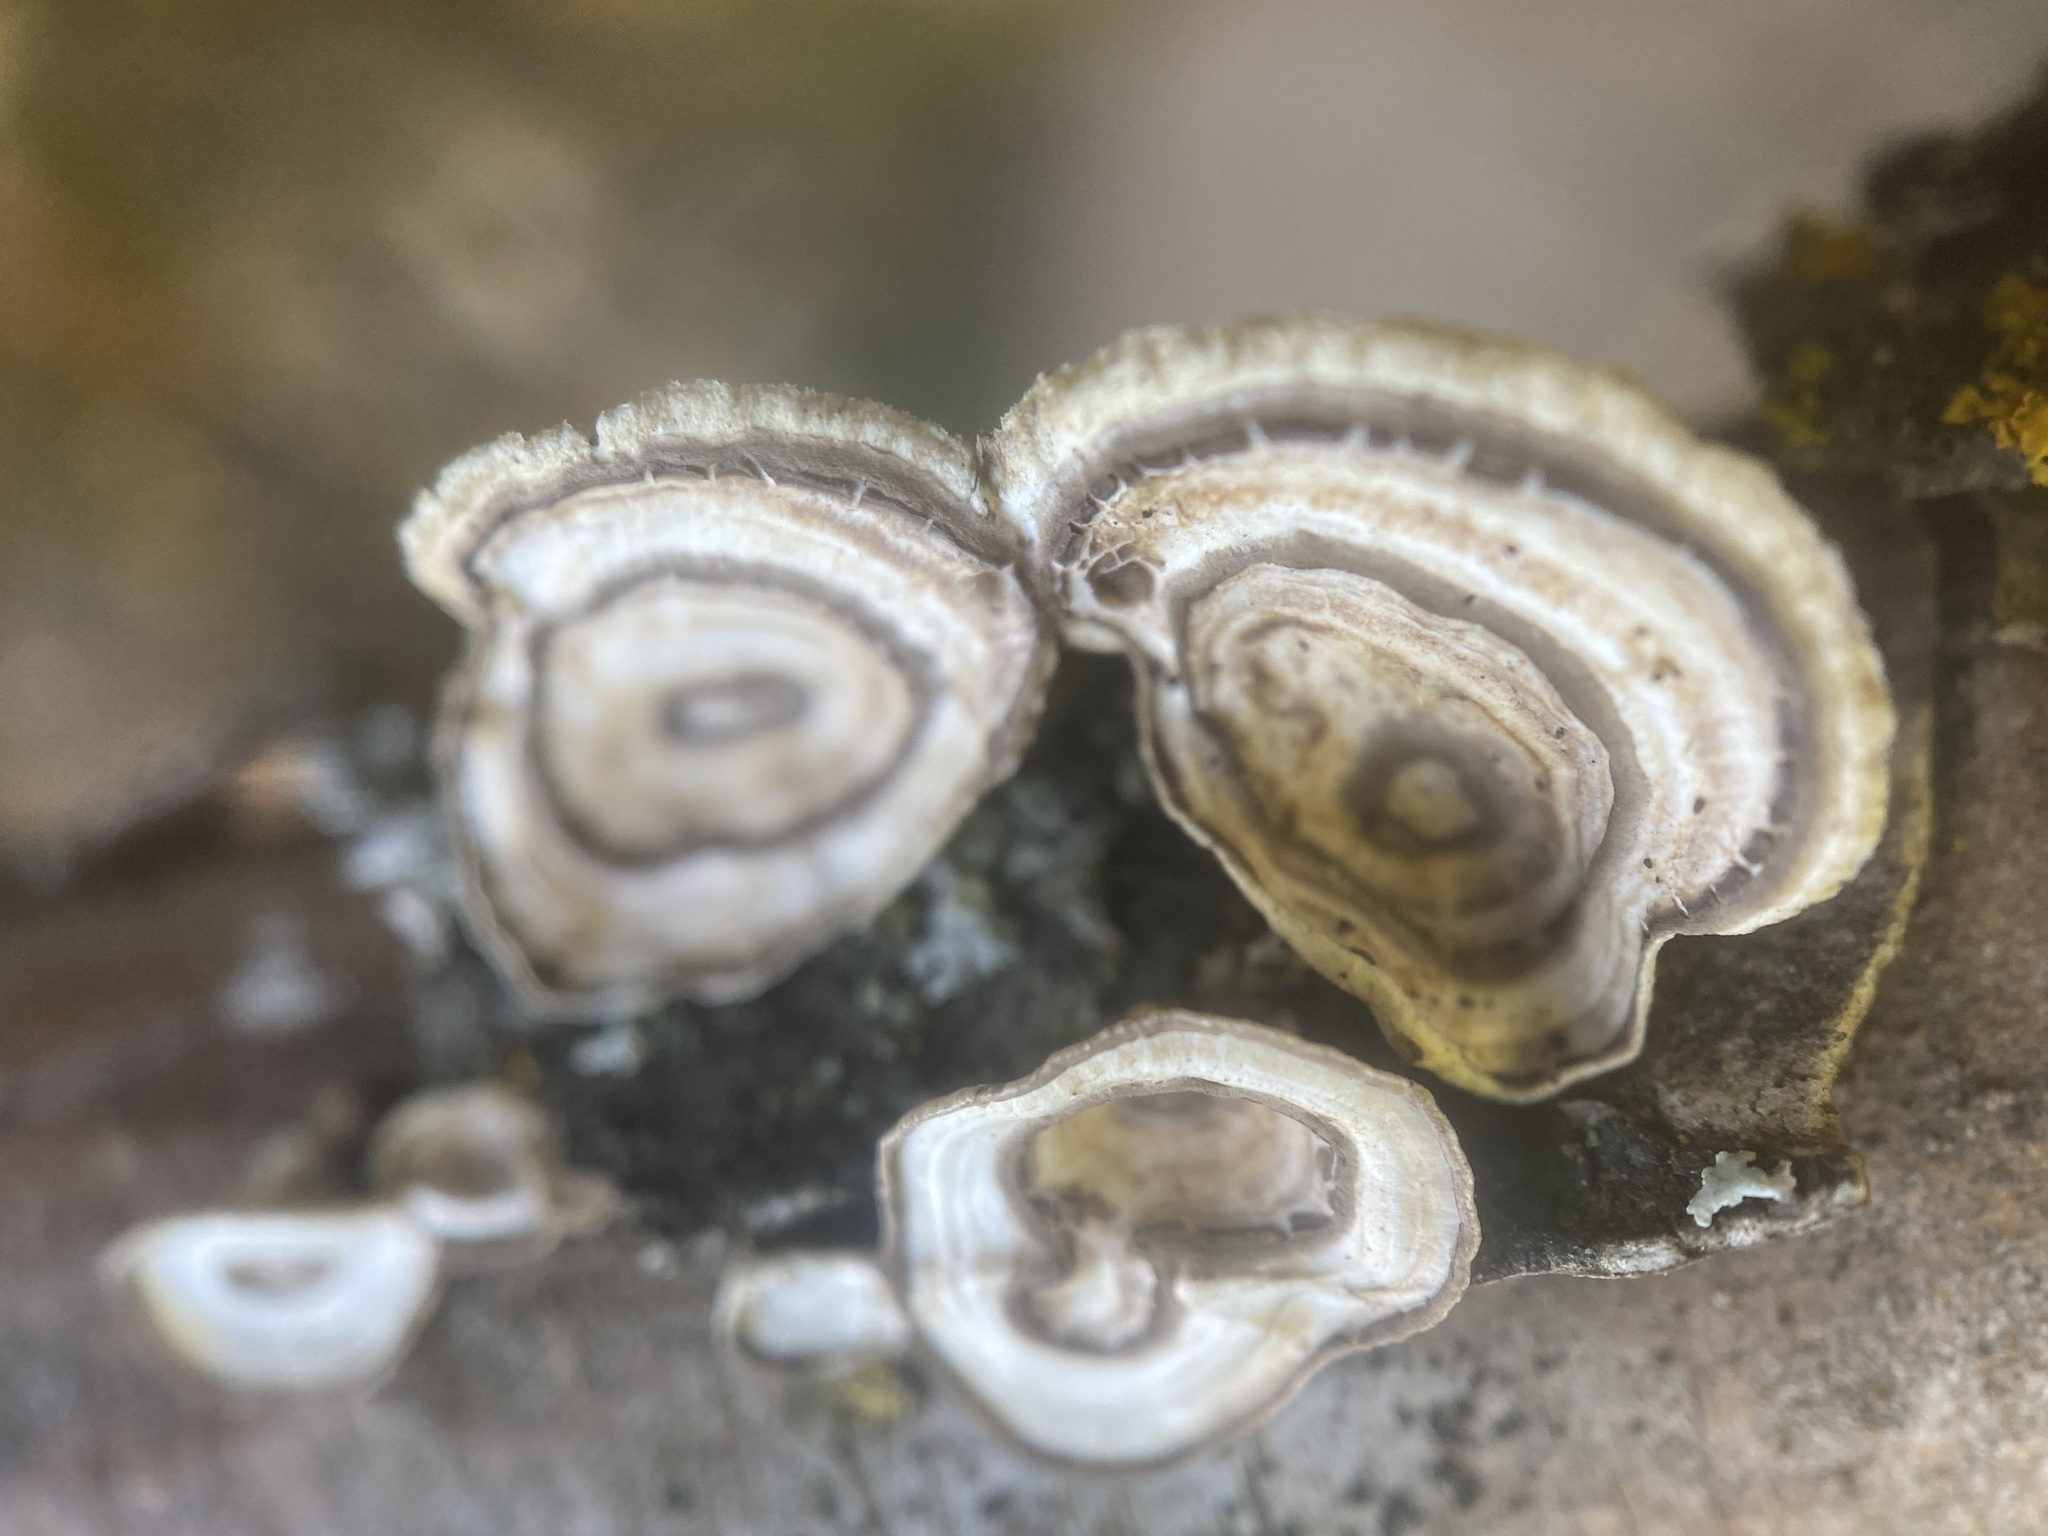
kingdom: Fungi
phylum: Basidiomycota
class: Agaricomycetes
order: Polyporales
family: Polyporaceae
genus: Poronidulus
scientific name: Poronidulus conchifer
